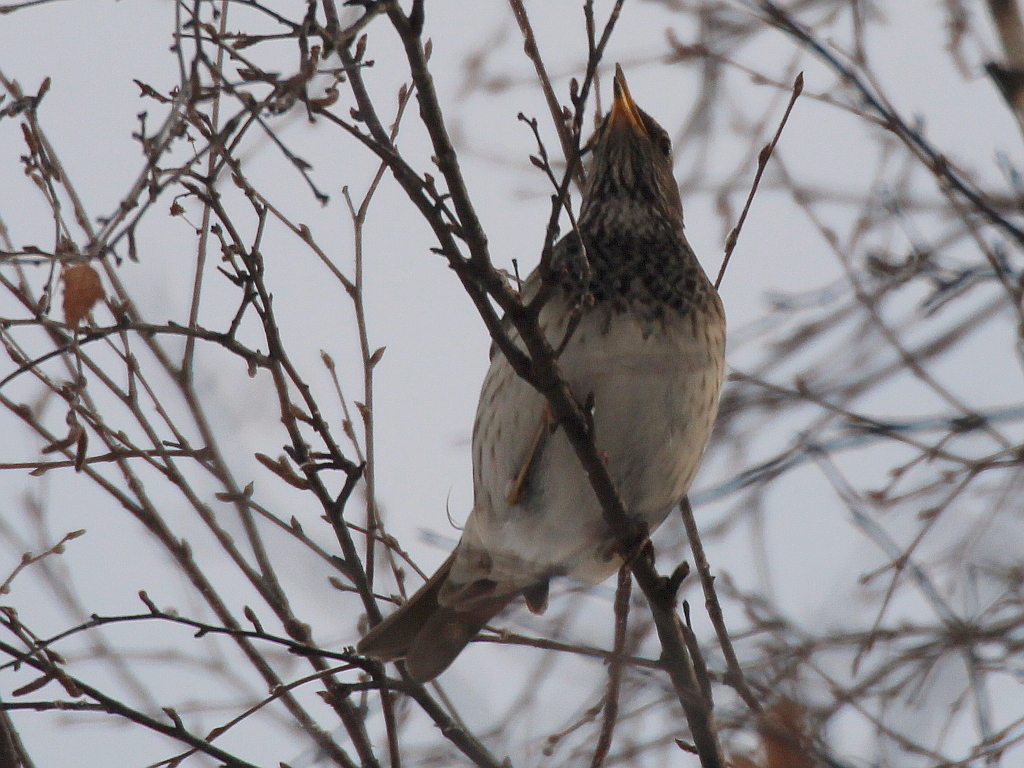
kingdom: Animalia
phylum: Chordata
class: Aves
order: Passeriformes
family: Turdidae
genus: Turdus
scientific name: Turdus atrogularis
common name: Black-throated thrush
